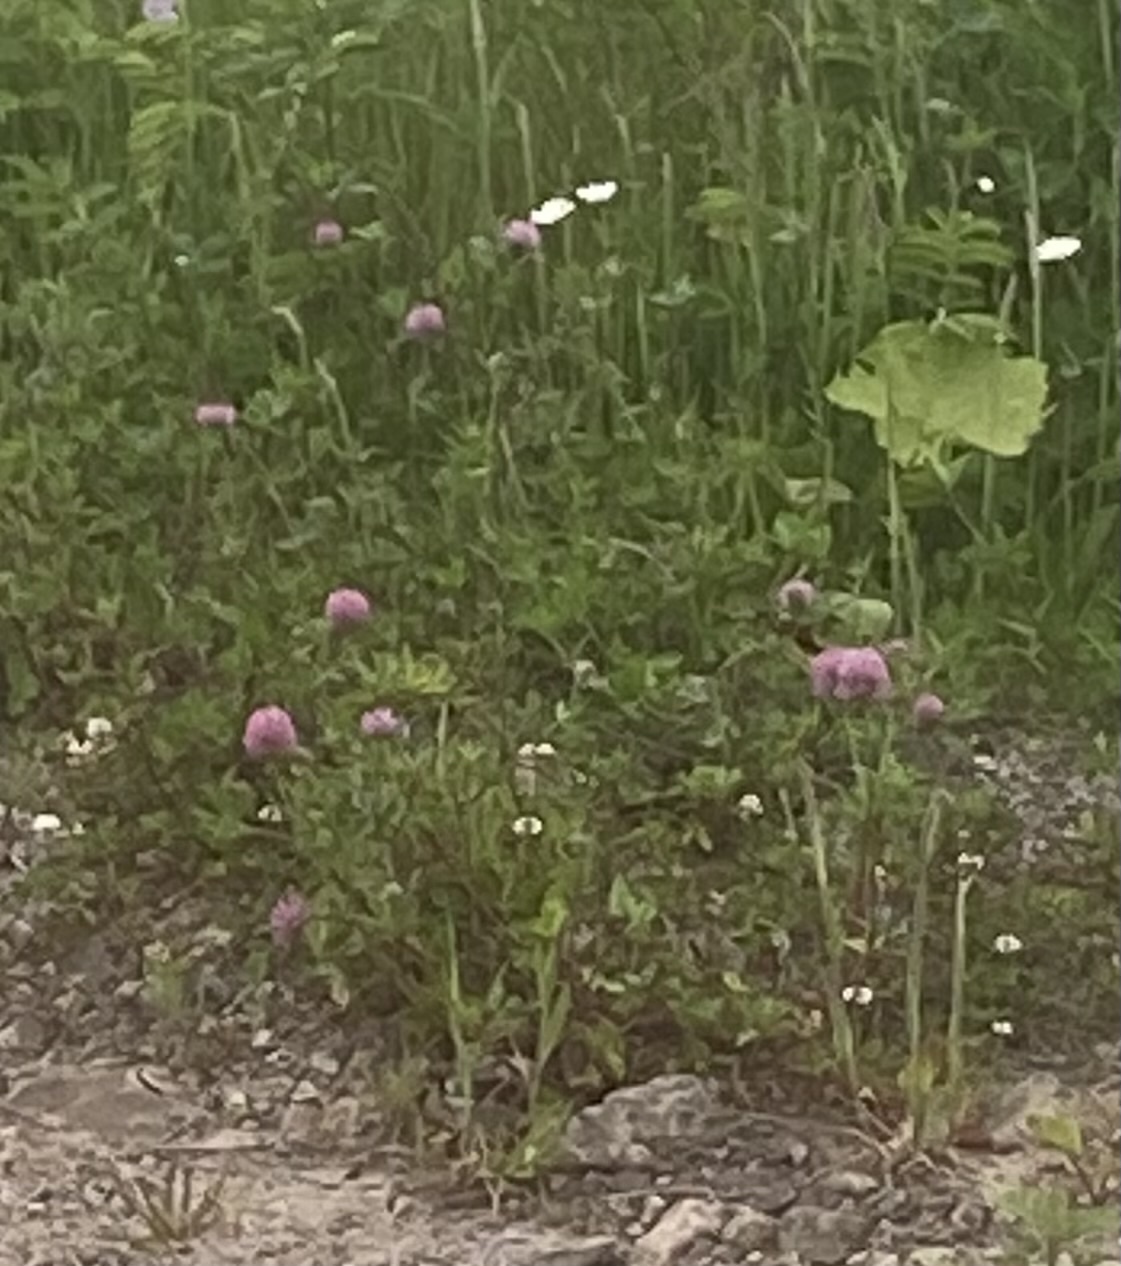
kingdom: Plantae
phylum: Tracheophyta
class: Magnoliopsida
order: Fabales
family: Fabaceae
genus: Trifolium
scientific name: Trifolium pratense
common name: Red clover
